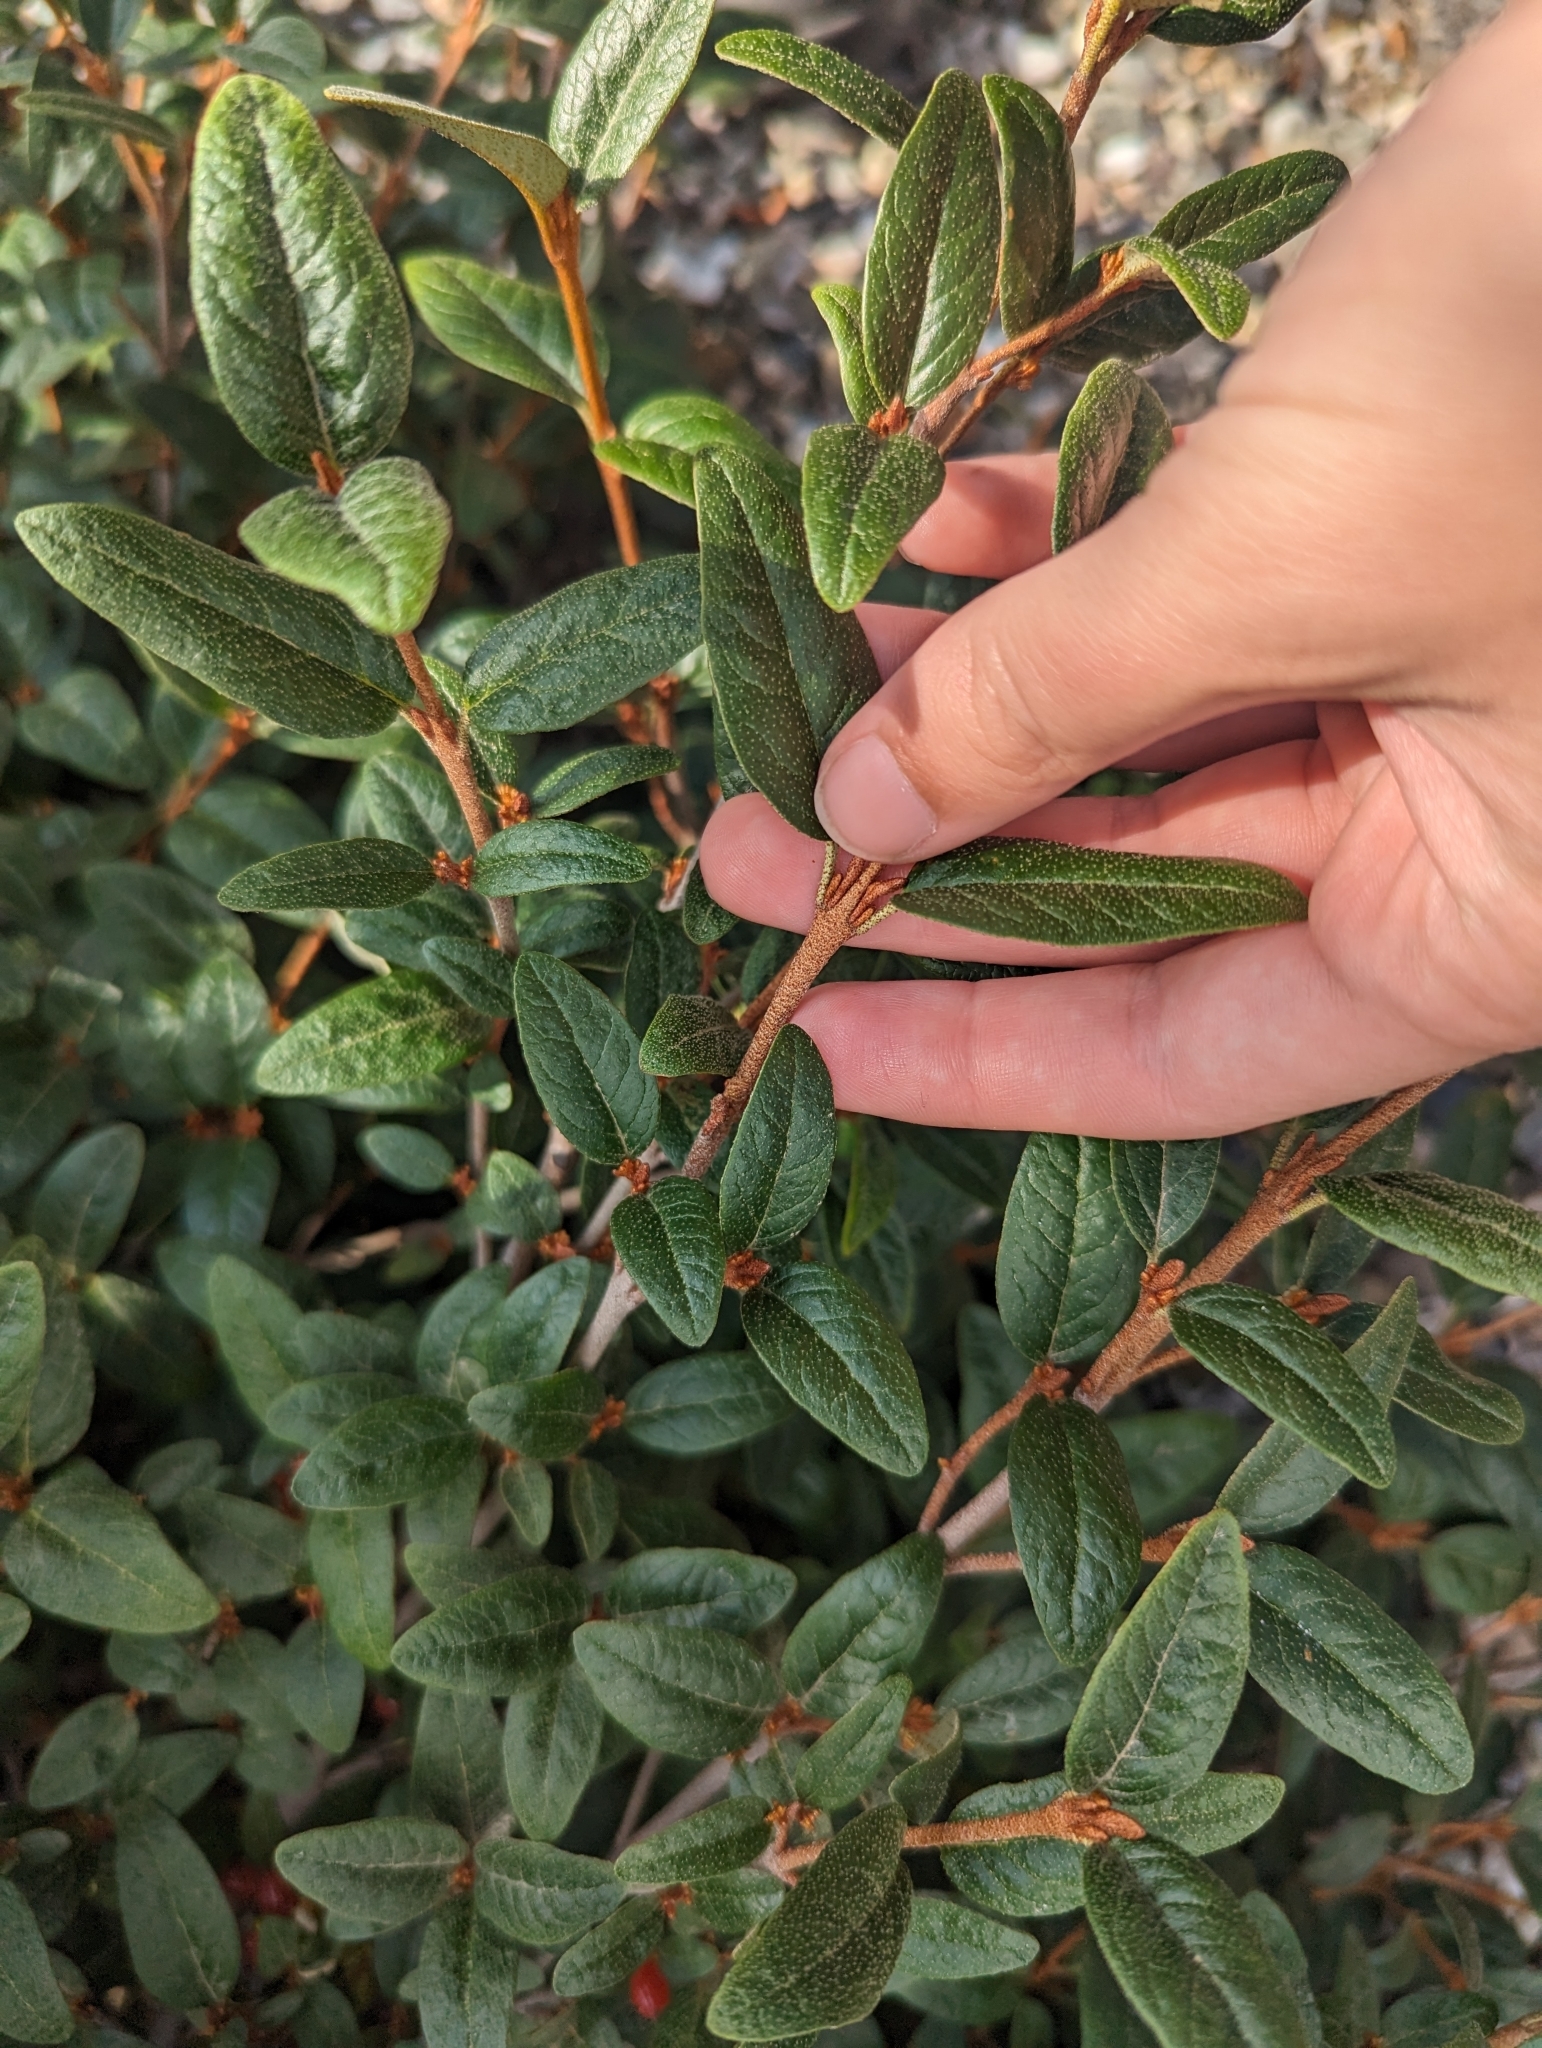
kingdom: Plantae
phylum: Tracheophyta
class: Magnoliopsida
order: Rosales
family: Elaeagnaceae
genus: Shepherdia
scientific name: Shepherdia canadensis
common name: Soapberry
